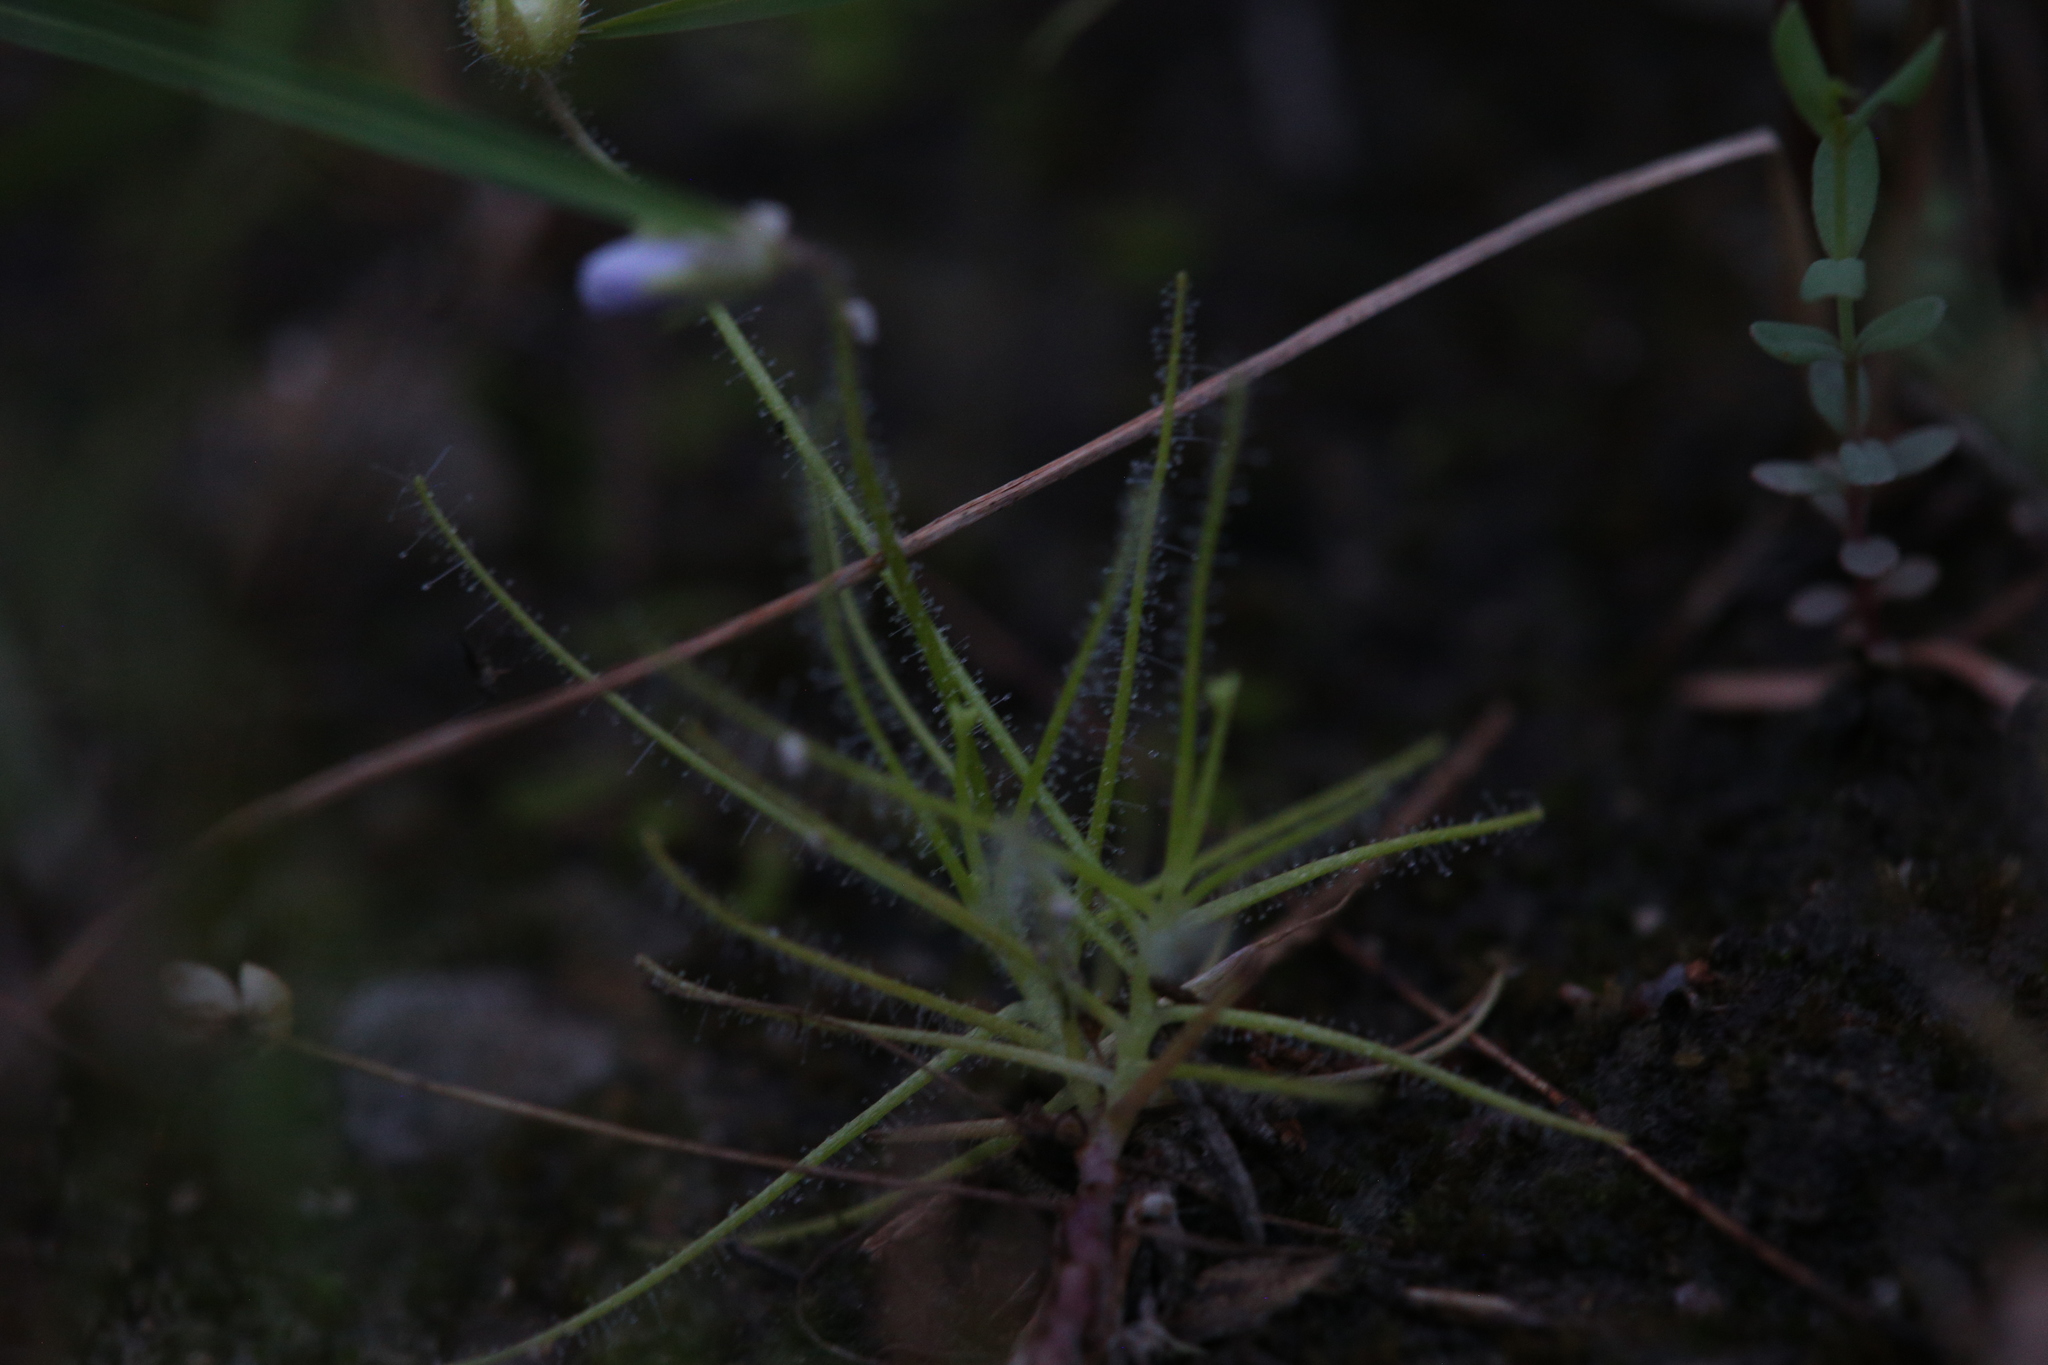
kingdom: Plantae
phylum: Tracheophyta
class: Magnoliopsida
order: Lamiales
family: Byblidaceae
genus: Byblis
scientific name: Byblis liniflora
